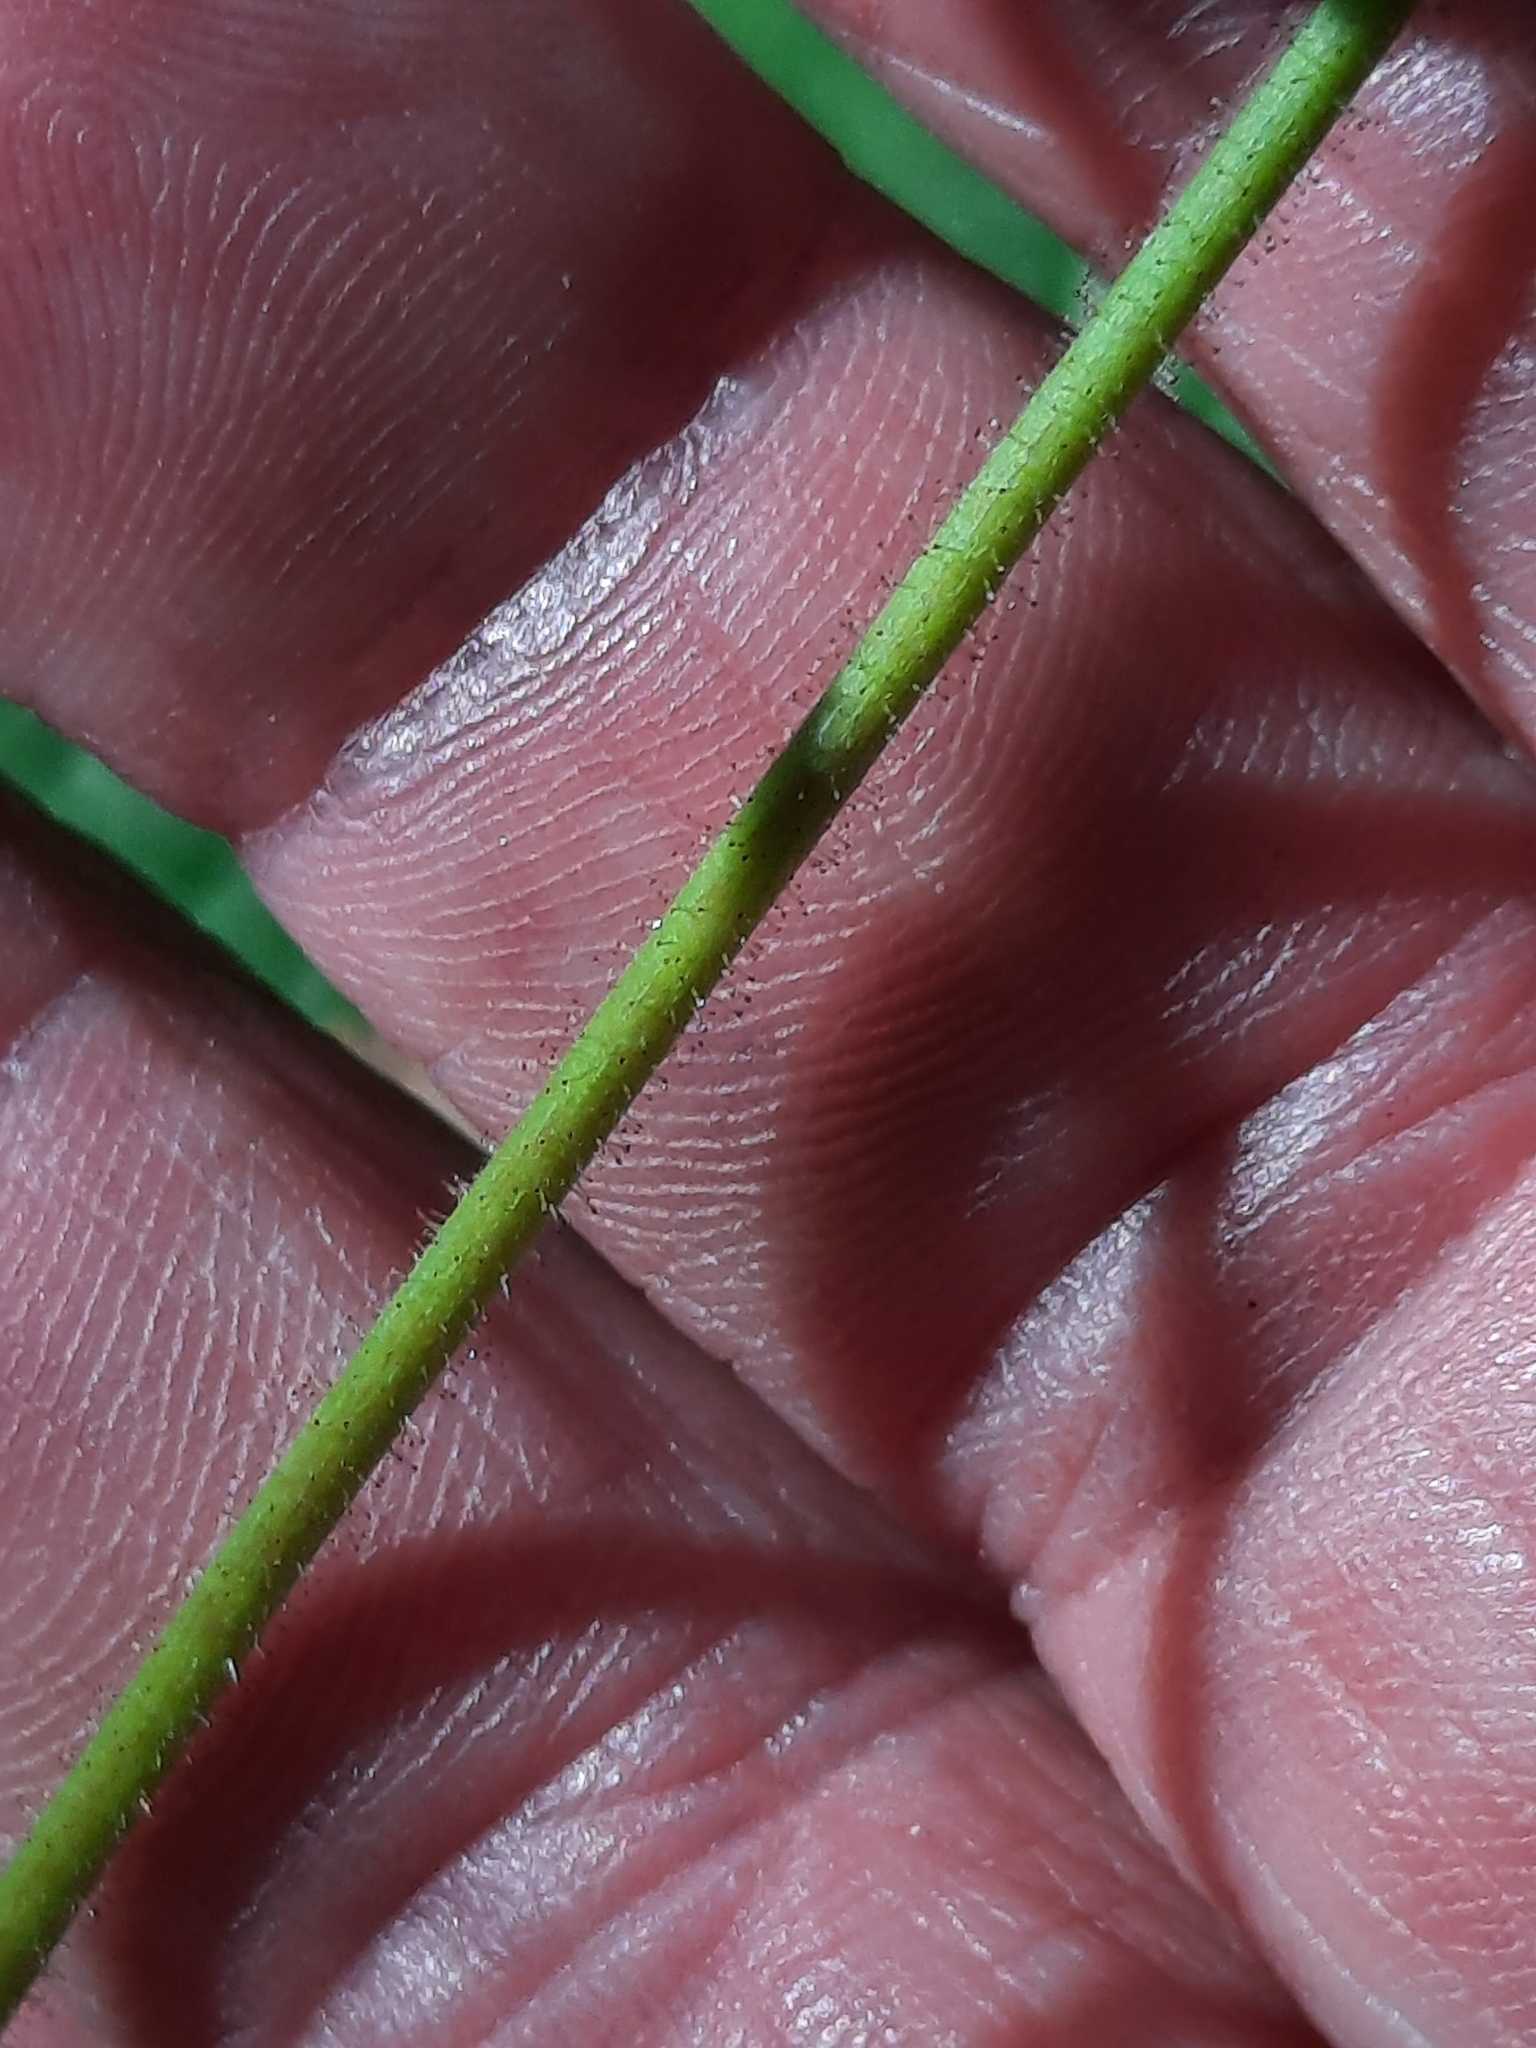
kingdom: Plantae
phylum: Tracheophyta
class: Magnoliopsida
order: Rosales
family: Rosaceae
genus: Rubus
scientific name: Rubus odoratus
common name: Purple-flowered raspberry
